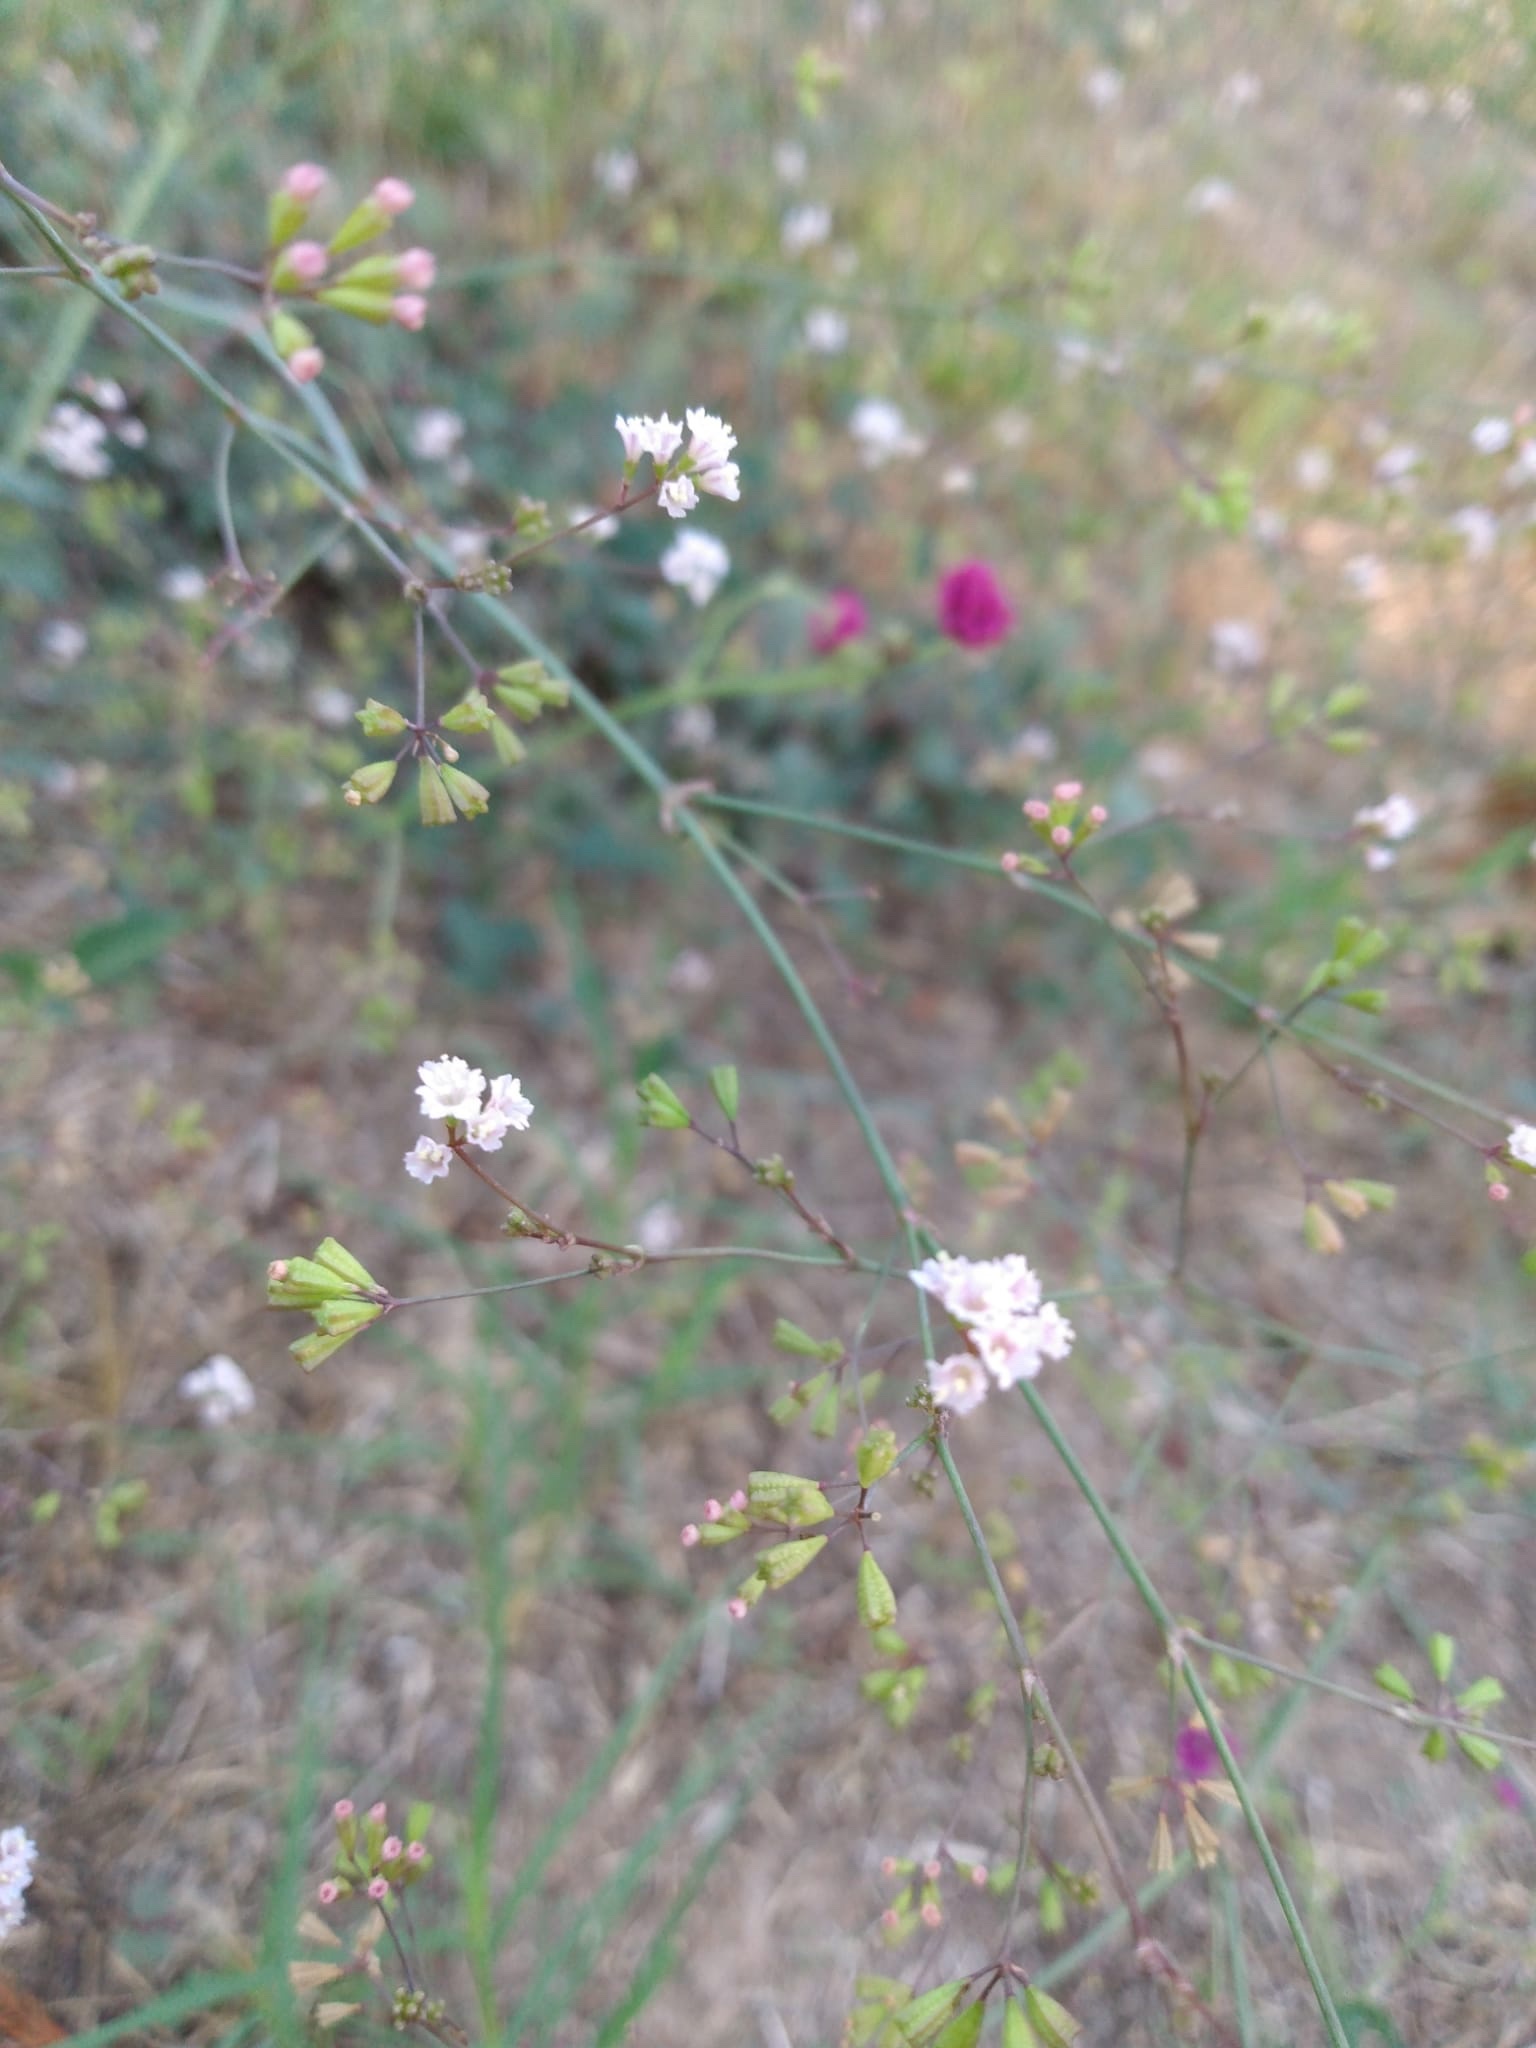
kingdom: Plantae
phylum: Tracheophyta
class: Magnoliopsida
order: Caryophyllales
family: Nyctaginaceae
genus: Boerhavia
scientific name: Boerhavia erecta
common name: Erect spiderling
